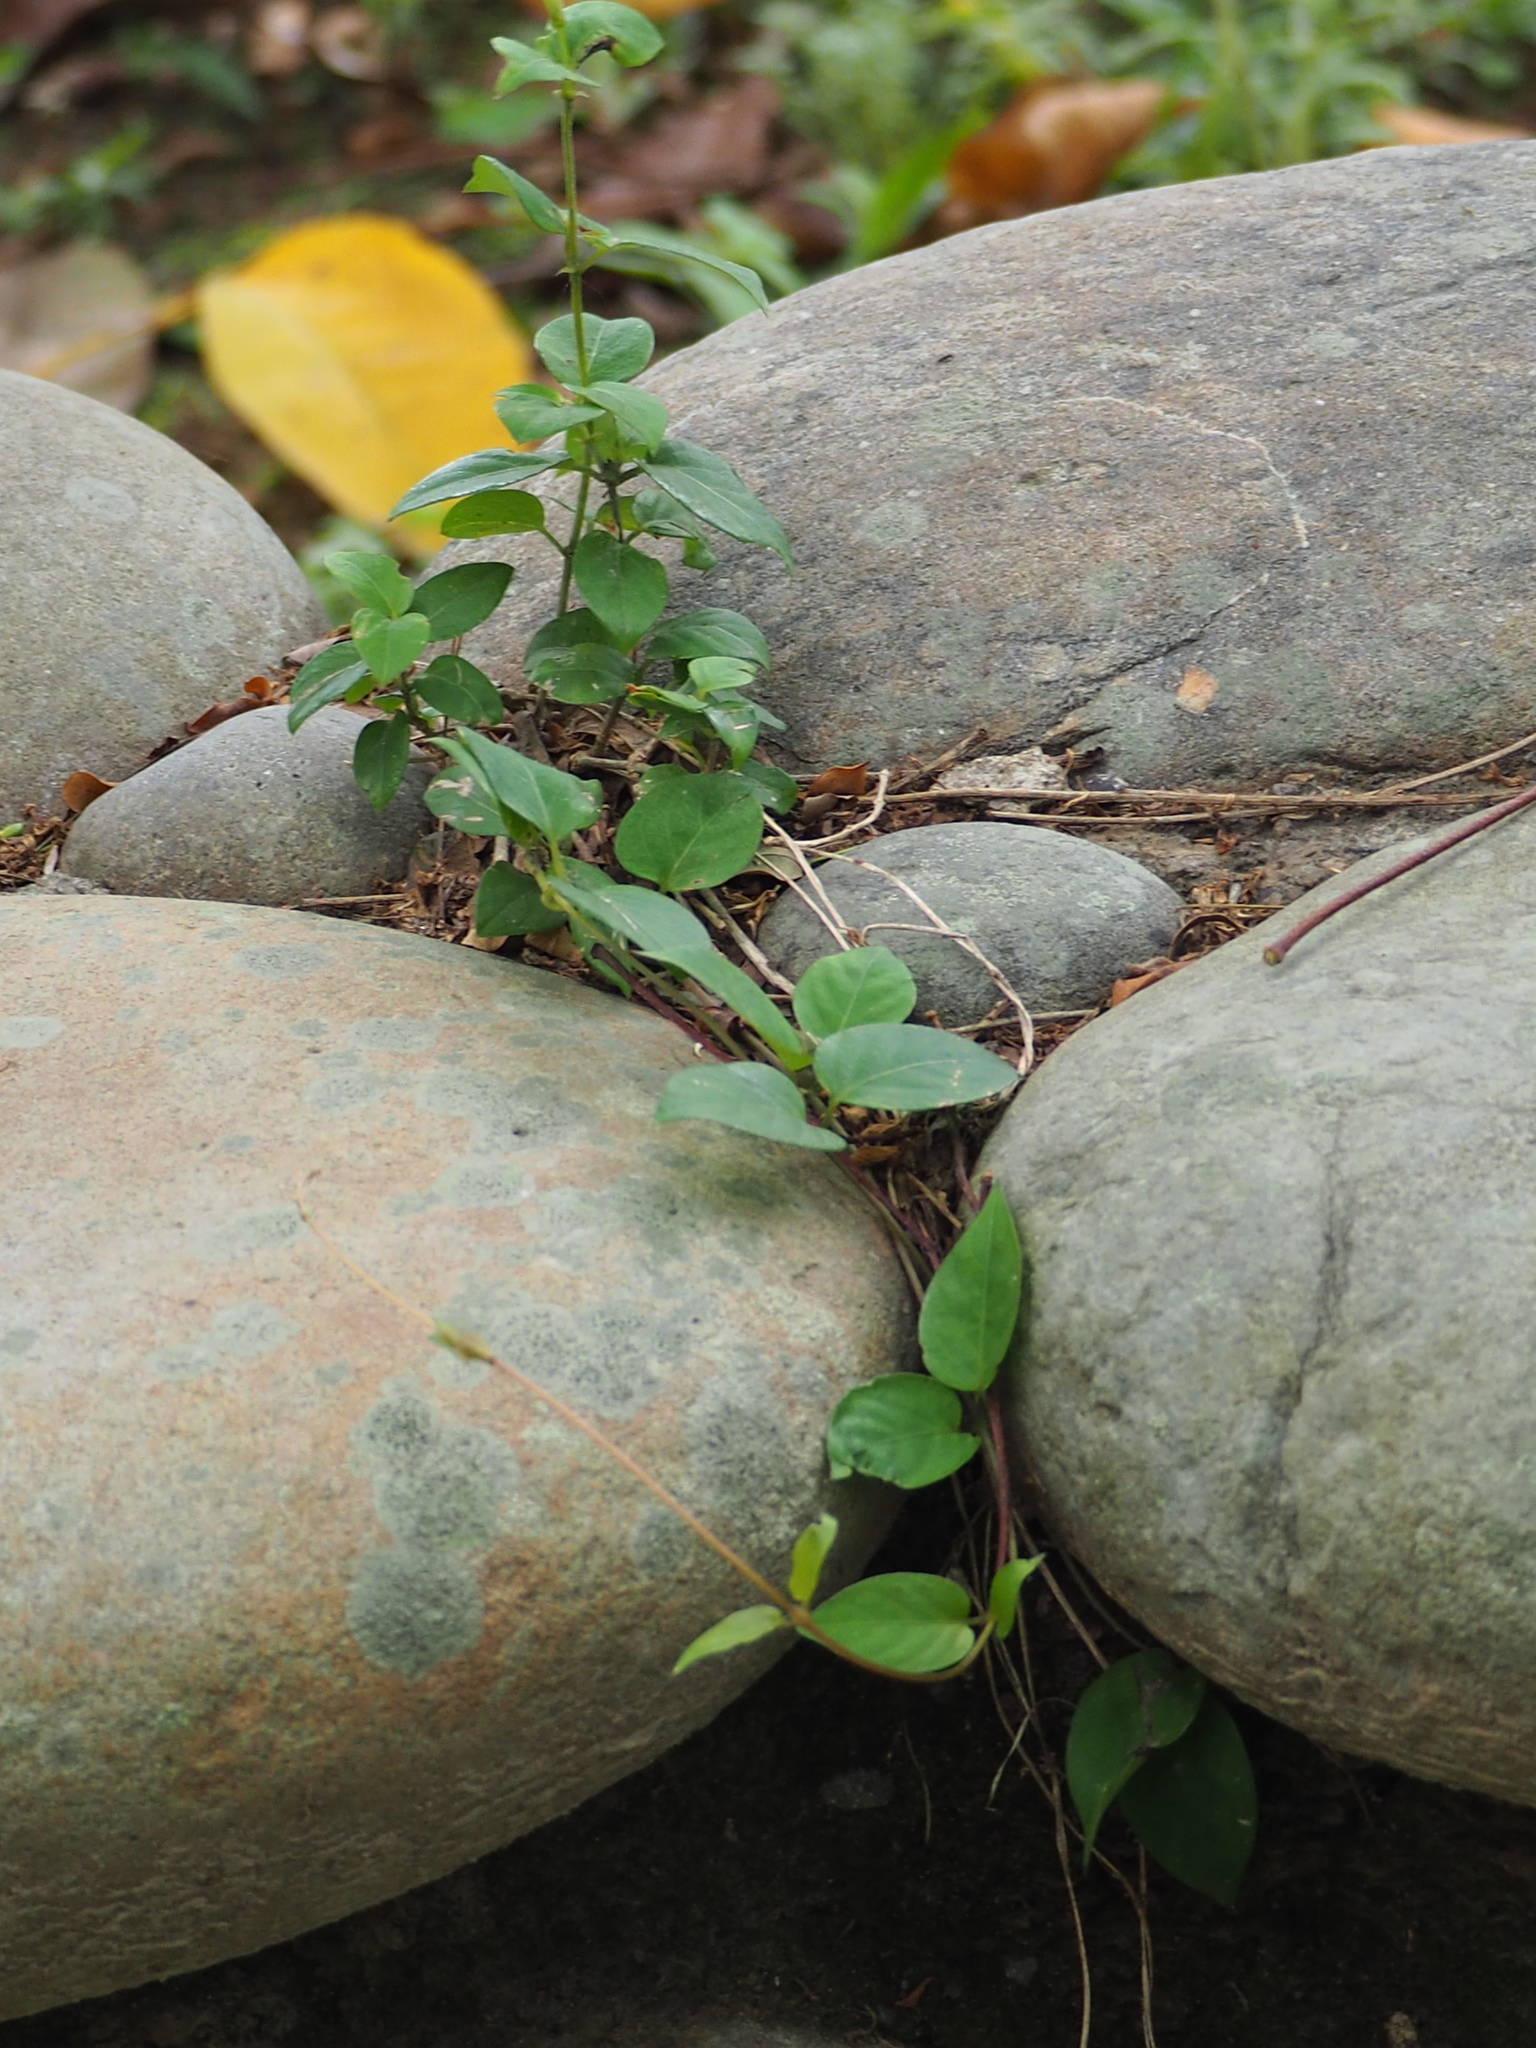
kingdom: Plantae
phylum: Tracheophyta
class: Magnoliopsida
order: Gentianales
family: Rubiaceae
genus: Paederia
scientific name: Paederia foetida
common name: Stinkvine
